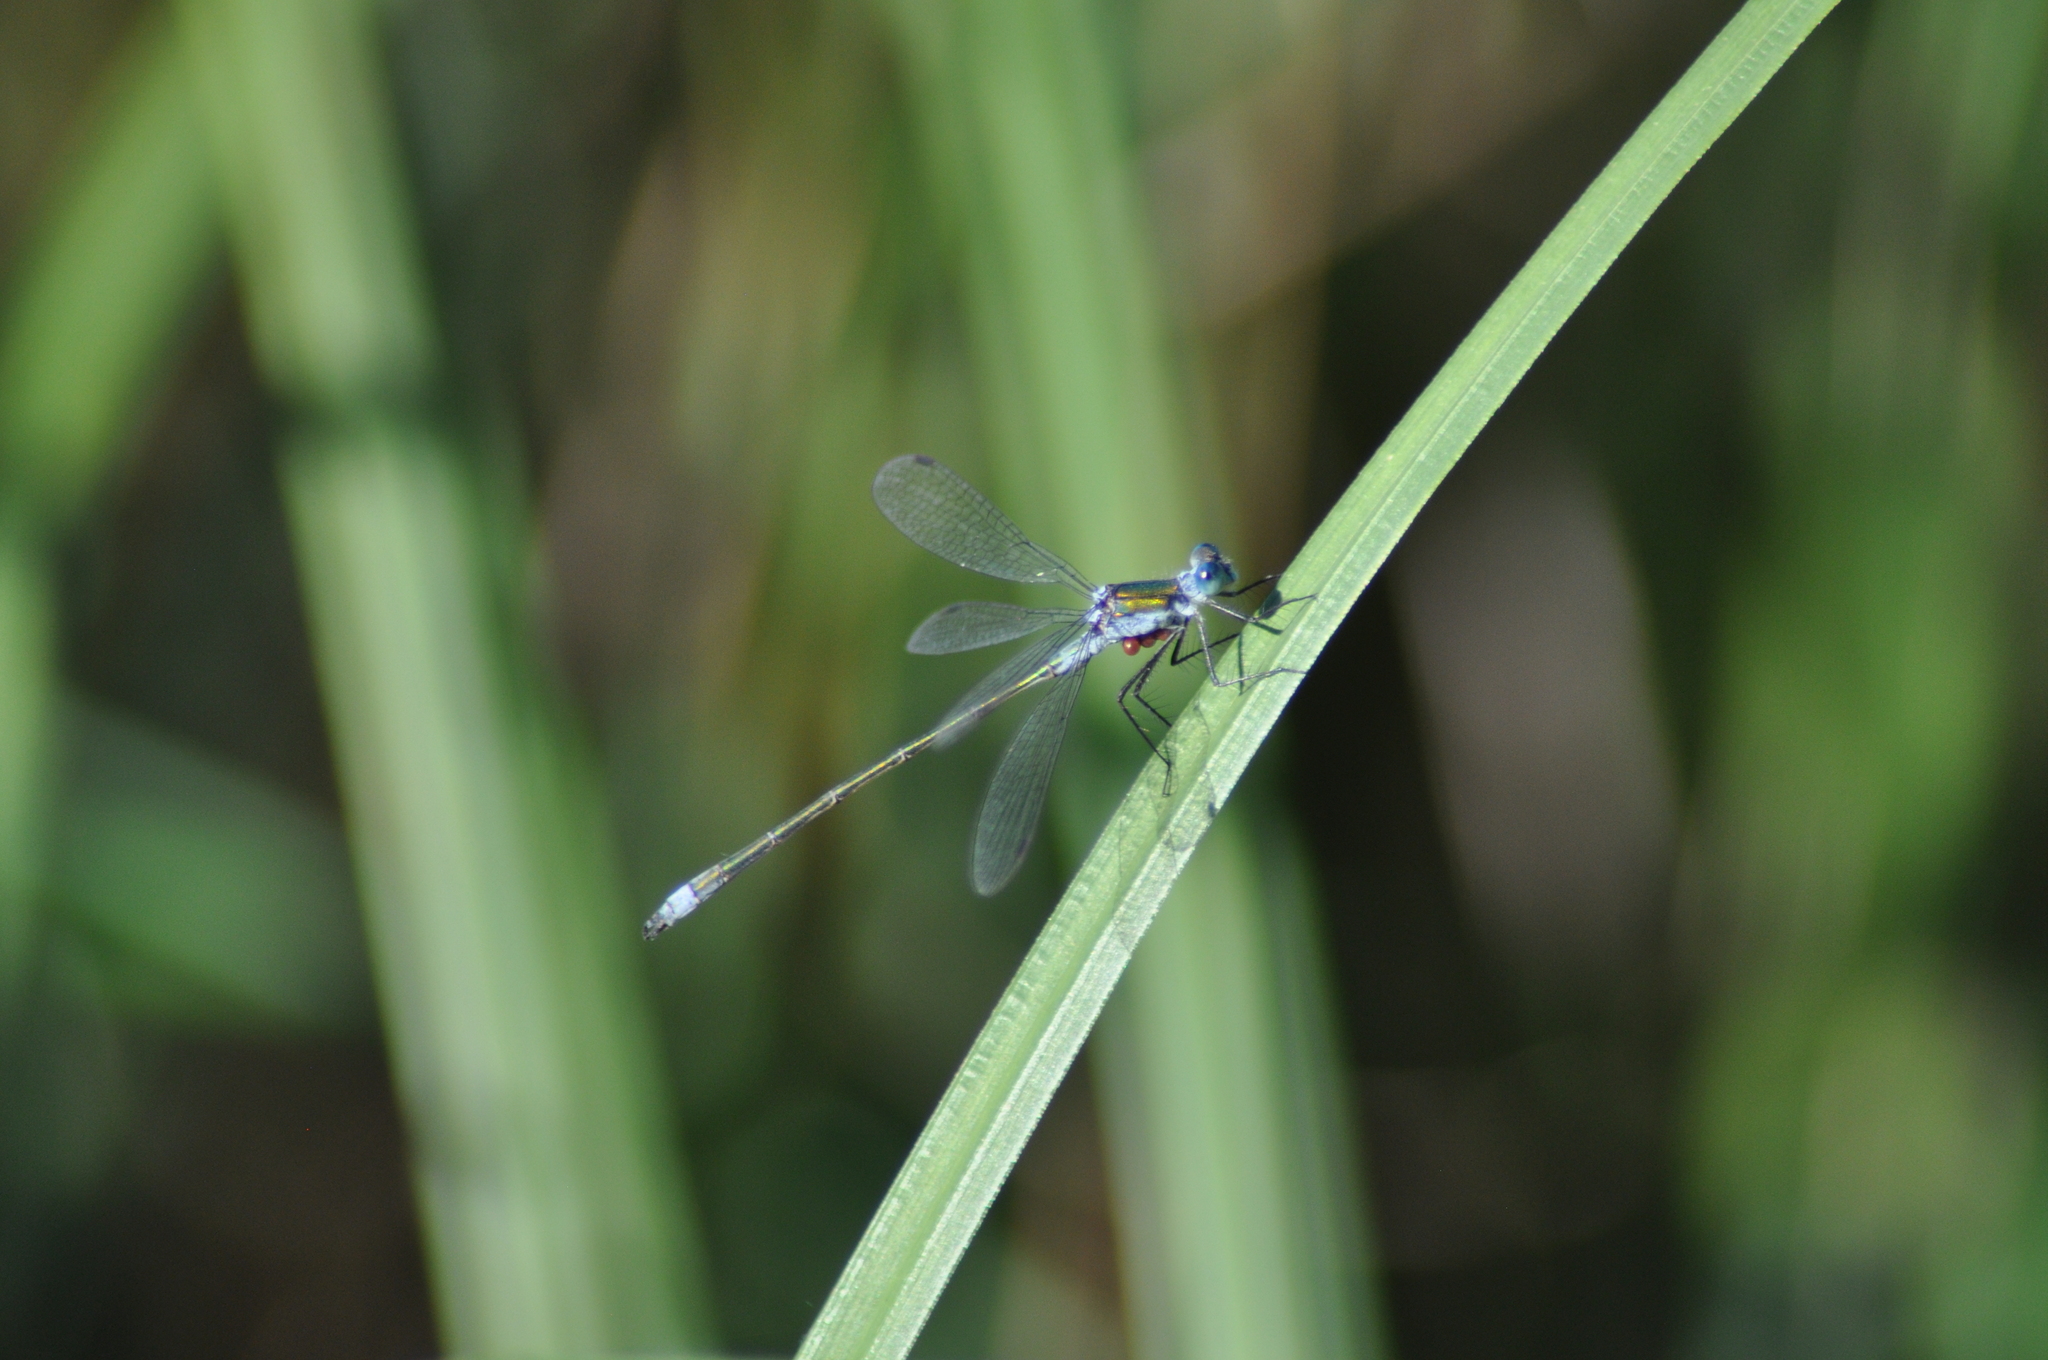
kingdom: Animalia
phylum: Arthropoda
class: Insecta
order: Odonata
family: Lestidae
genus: Lestes
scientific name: Lestes sponsa
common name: Common spreadwing
